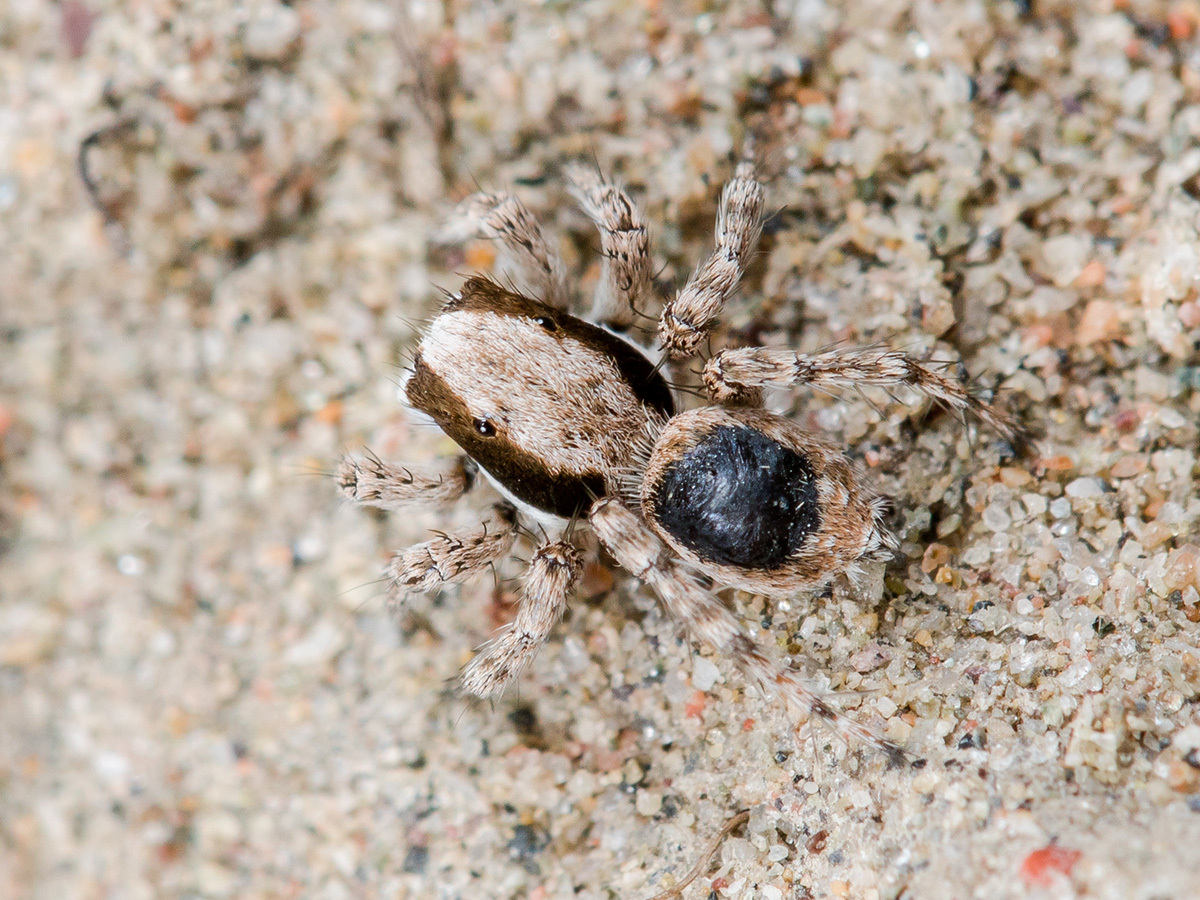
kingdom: Animalia
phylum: Arthropoda
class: Arachnida
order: Araneae
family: Salticidae
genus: Aelurillus
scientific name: Aelurillus andreevae
